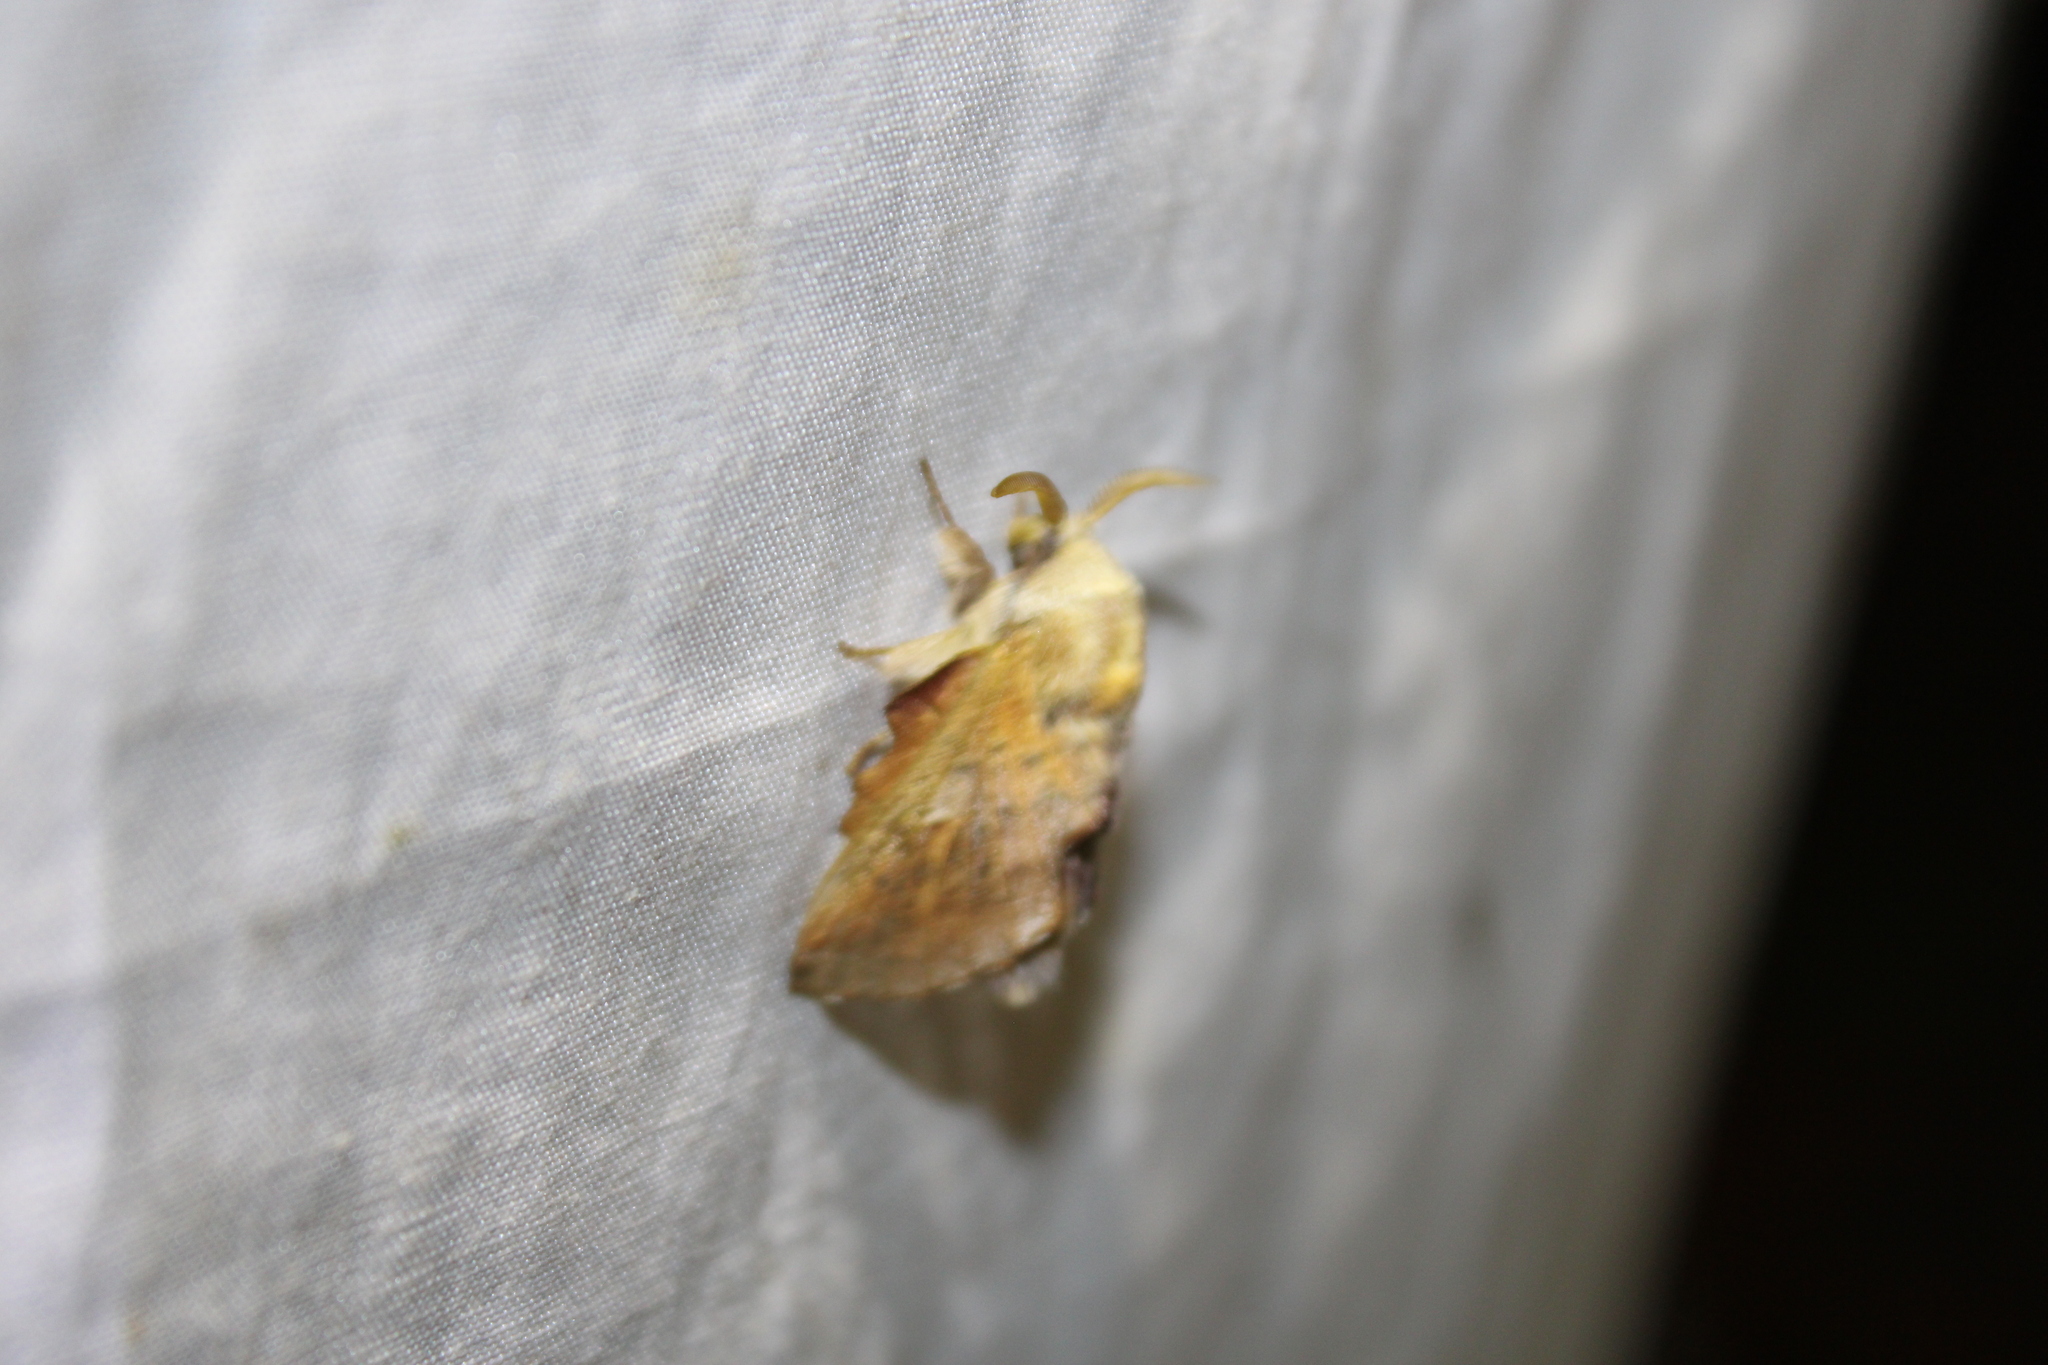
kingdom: Animalia
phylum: Arthropoda
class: Insecta
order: Lepidoptera
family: Lasiocampidae
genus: Phyllodesma
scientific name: Phyllodesma americana
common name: American lappet moth
